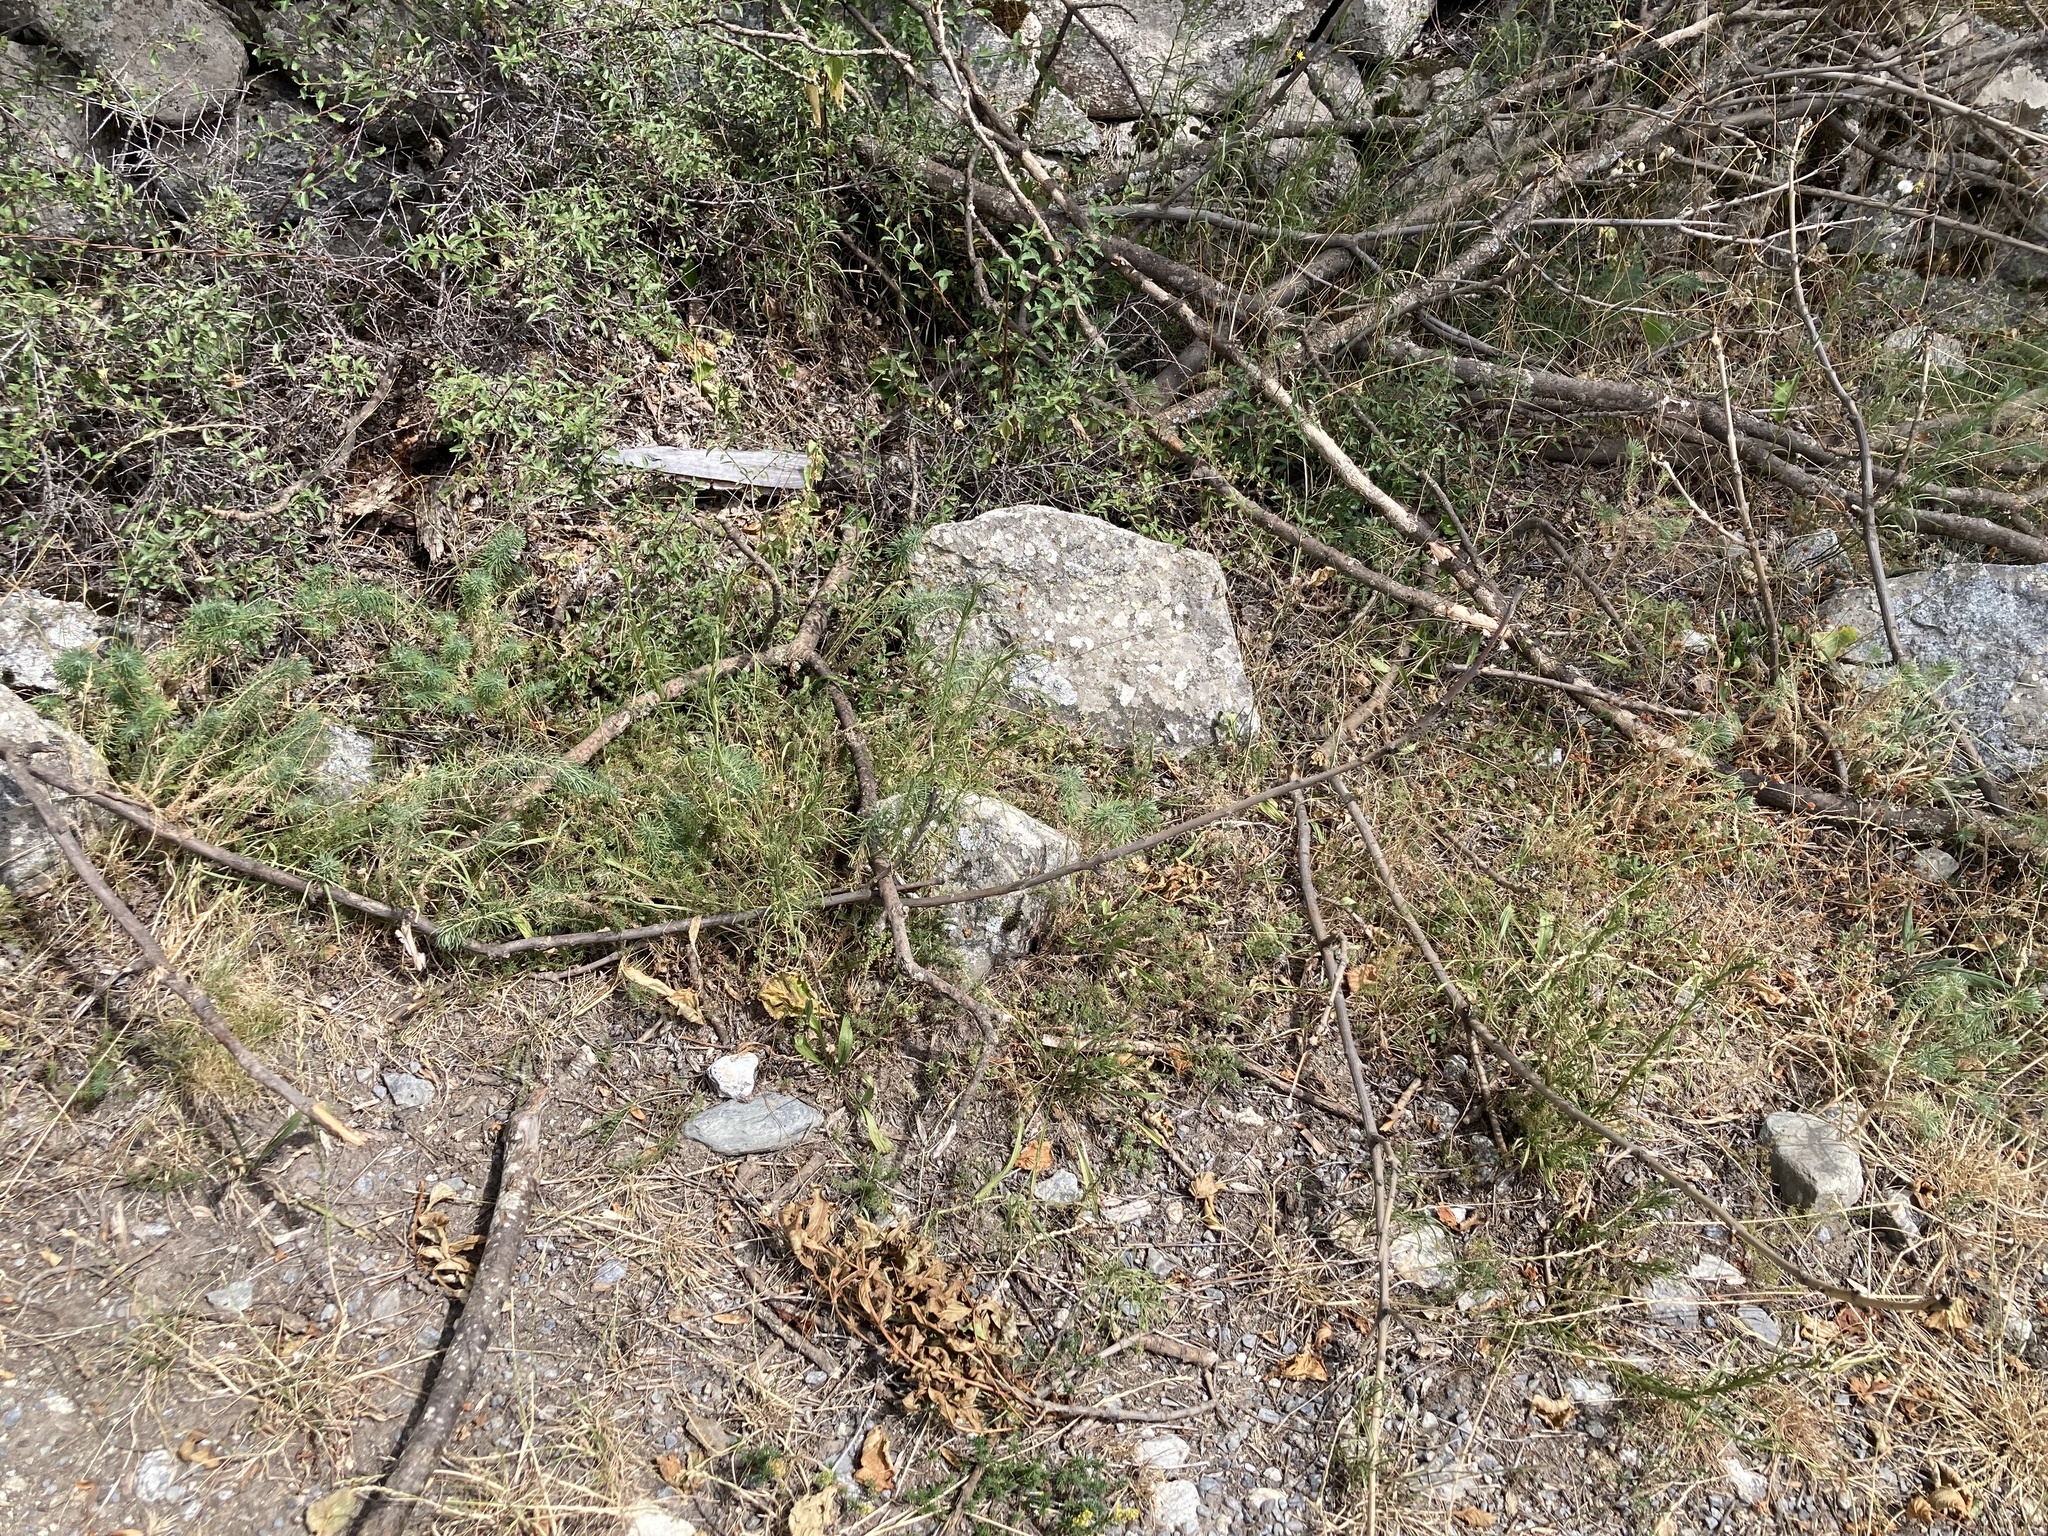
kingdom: Plantae
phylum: Tracheophyta
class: Magnoliopsida
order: Asterales
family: Asteraceae
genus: Senecio
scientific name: Senecio inaequidens
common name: Narrow-leaved ragwort
